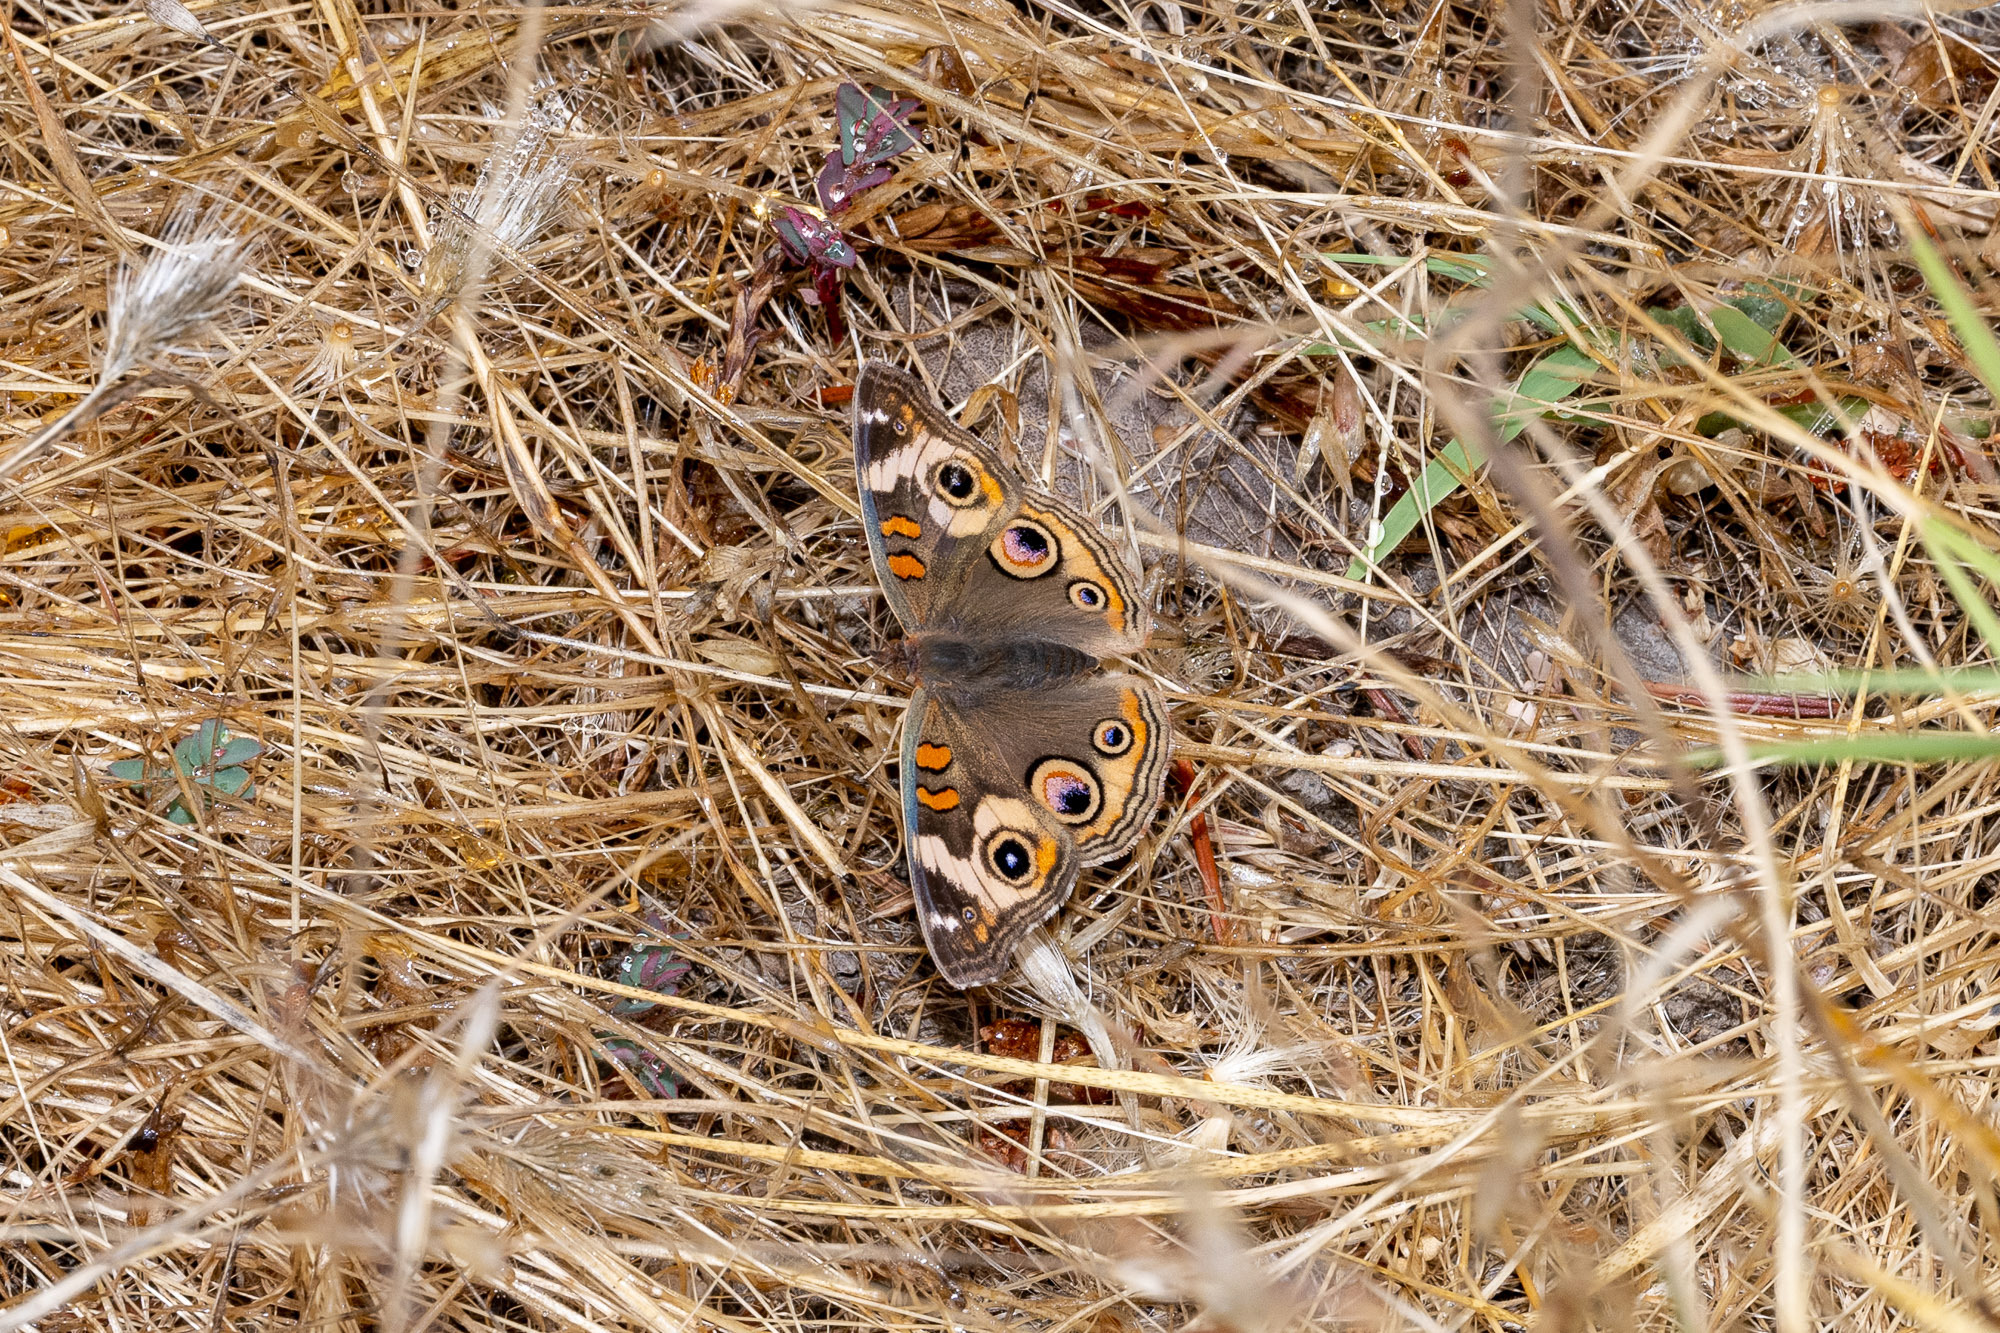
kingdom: Animalia
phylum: Arthropoda
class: Insecta
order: Lepidoptera
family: Nymphalidae
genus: Junonia
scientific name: Junonia grisea
